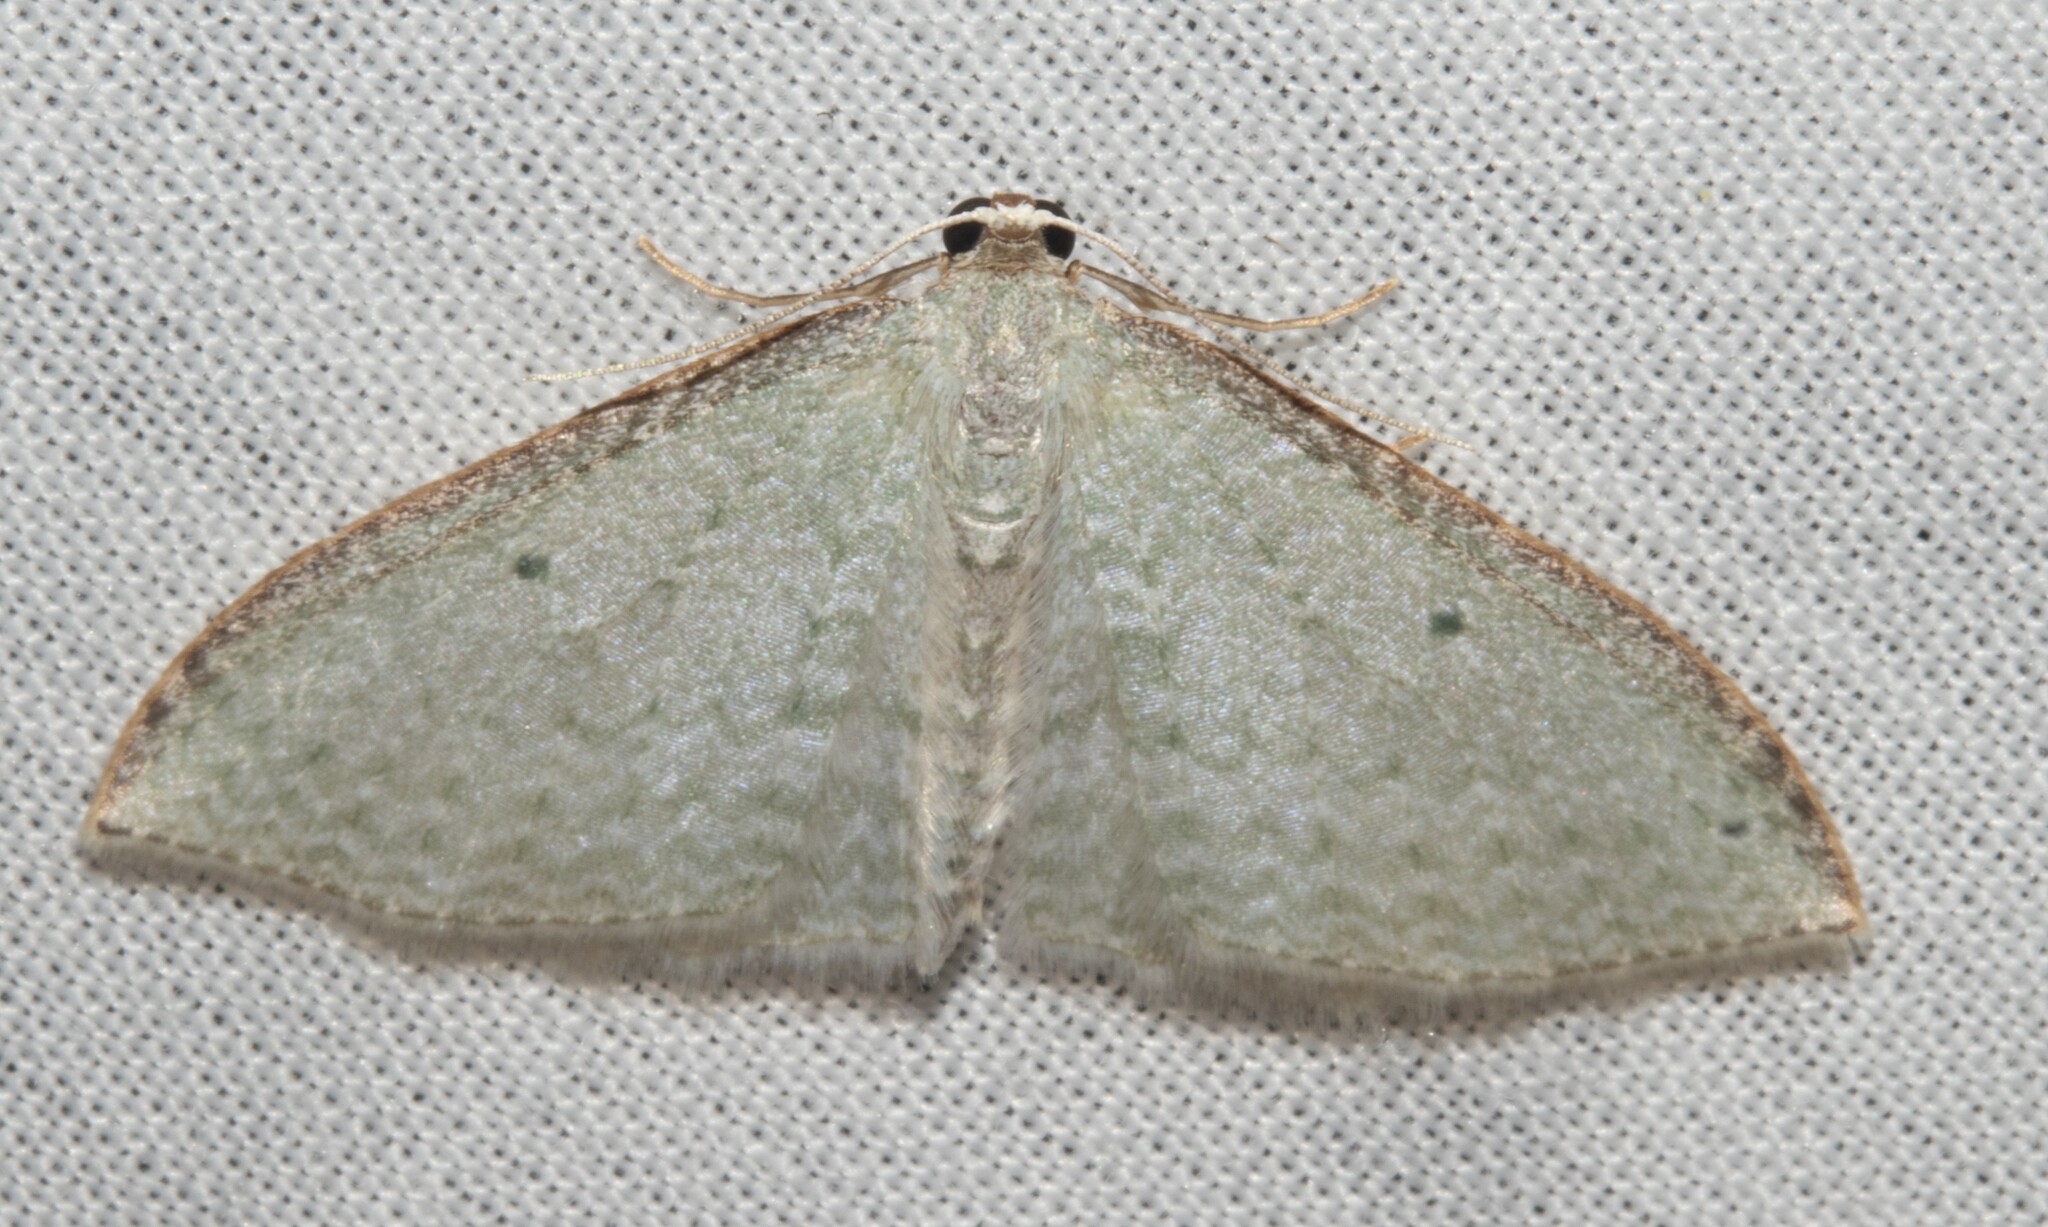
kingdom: Animalia
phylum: Arthropoda
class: Insecta
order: Lepidoptera
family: Geometridae
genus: Poecilasthena
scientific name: Poecilasthena pulchraria
